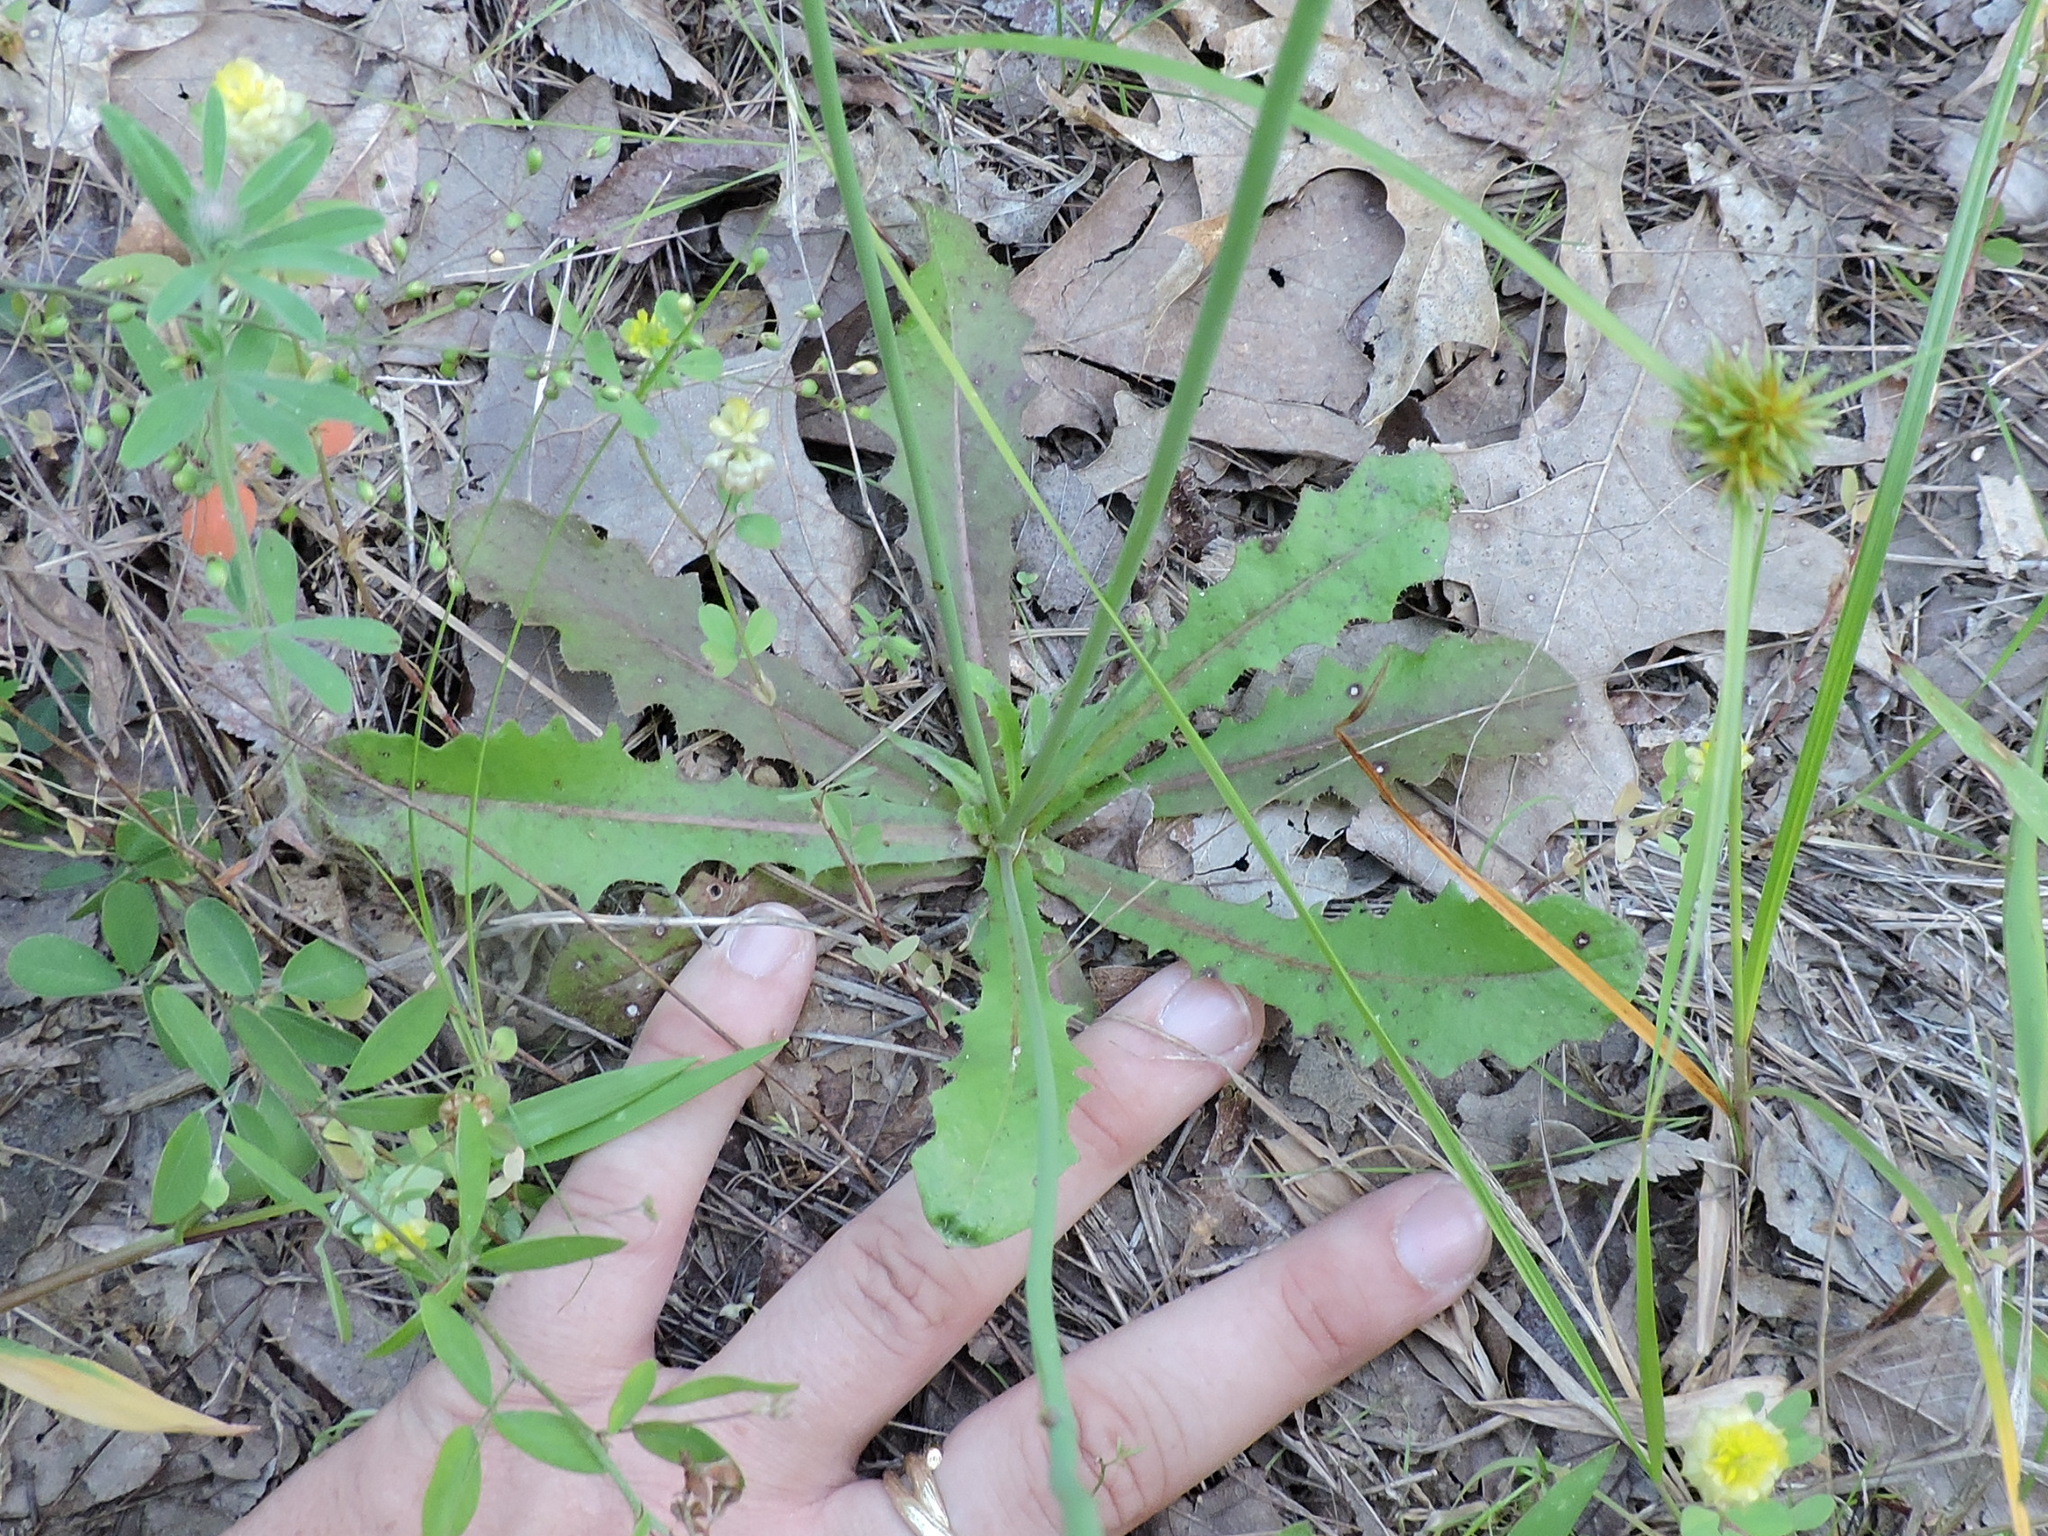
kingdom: Plantae
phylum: Tracheophyta
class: Magnoliopsida
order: Asterales
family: Asteraceae
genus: Hypochaeris
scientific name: Hypochaeris glabra
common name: Smooth catsear
